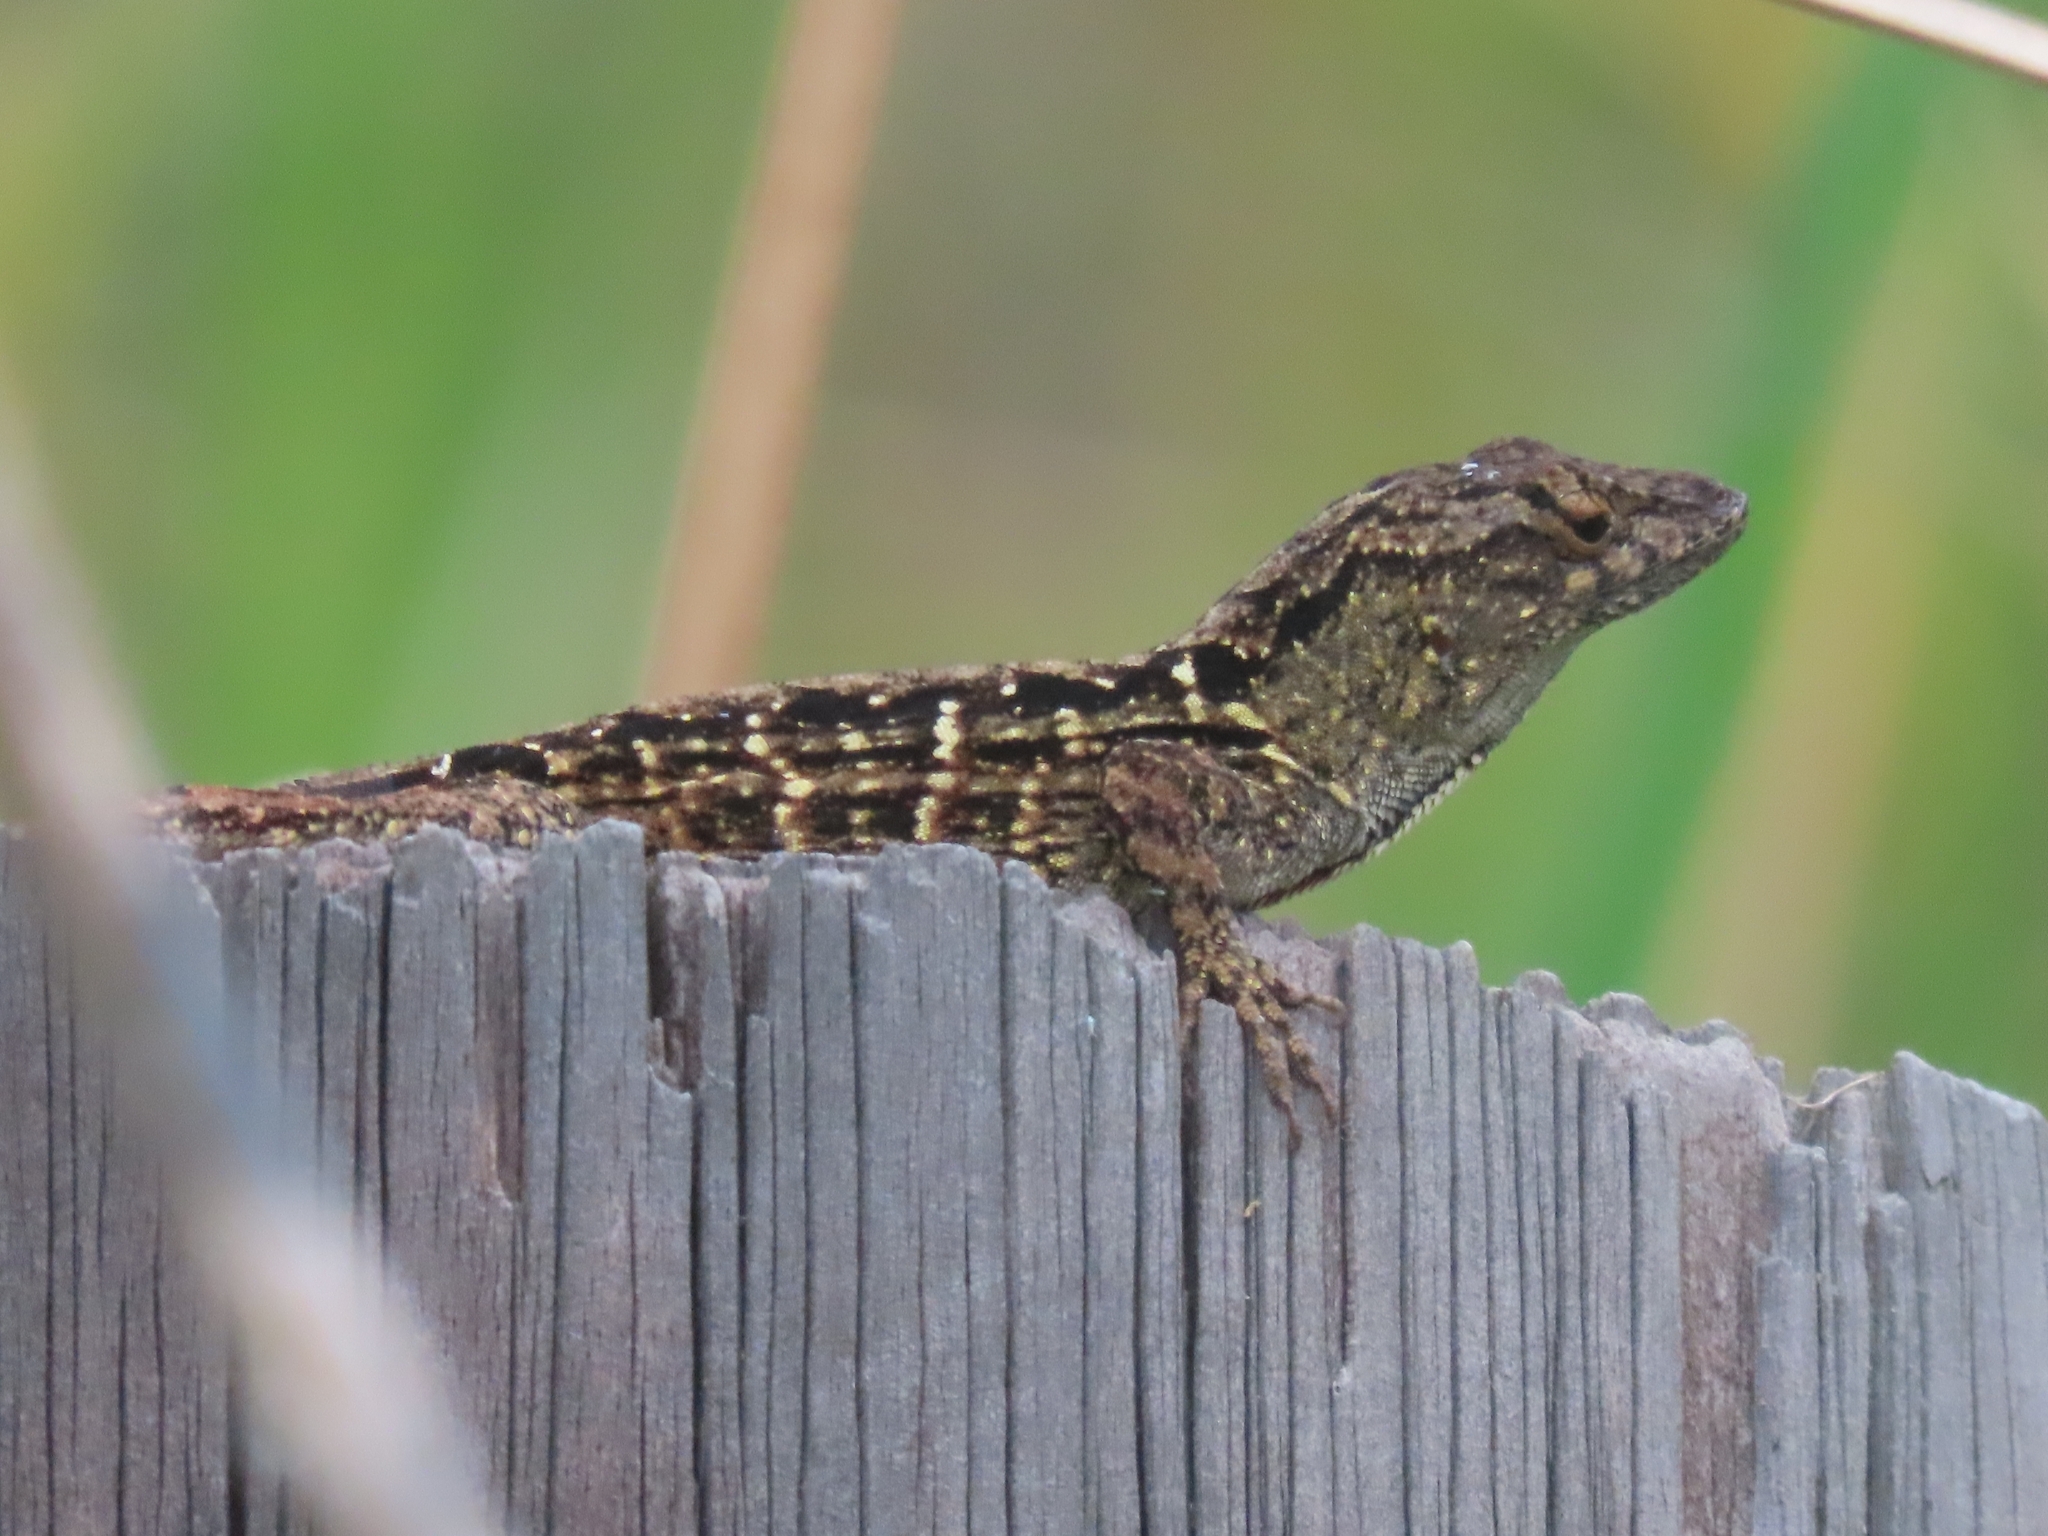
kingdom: Animalia
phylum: Chordata
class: Squamata
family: Dactyloidae
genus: Anolis
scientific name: Anolis sagrei
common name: Brown anole
